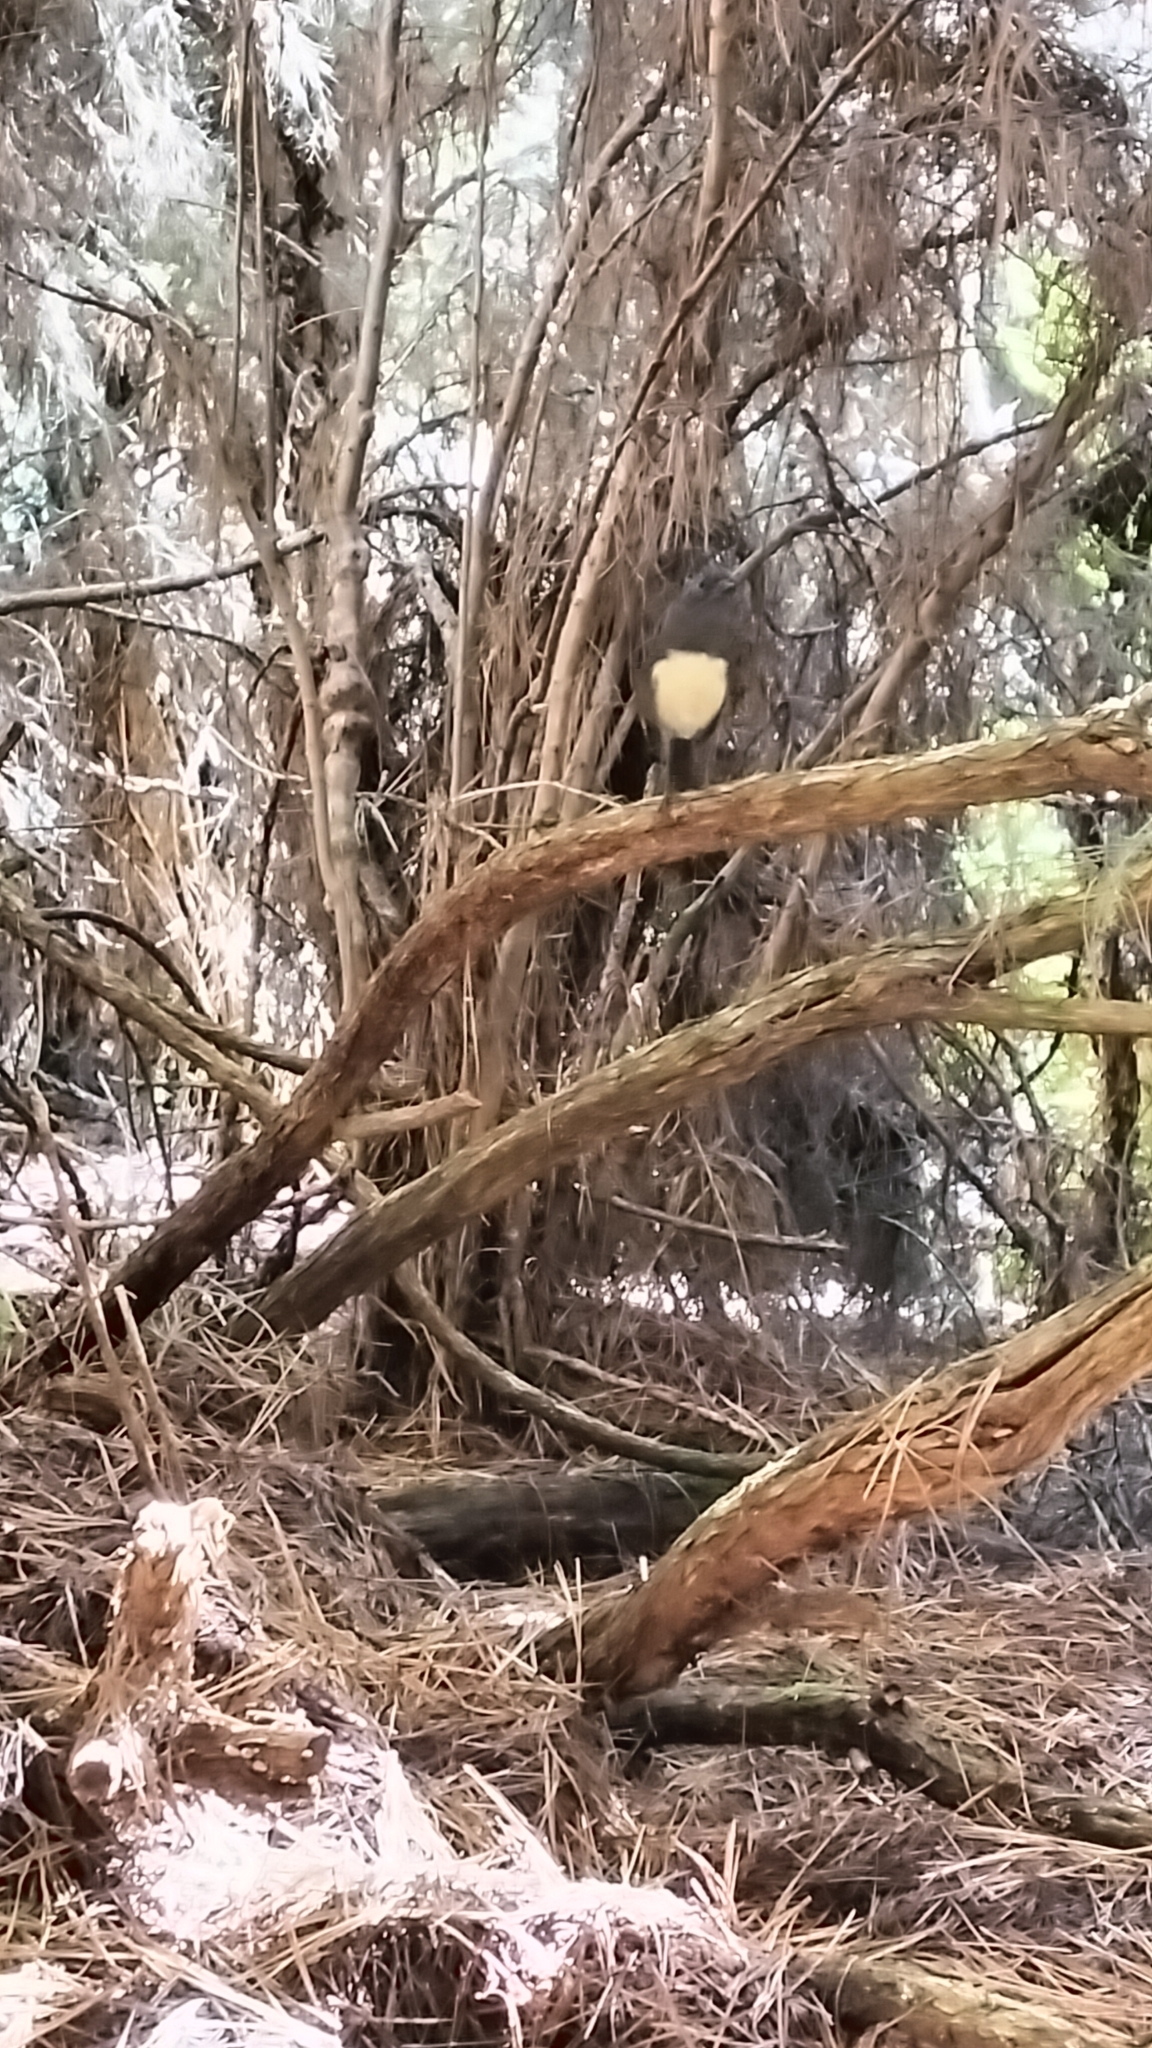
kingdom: Animalia
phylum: Chordata
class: Aves
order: Passeriformes
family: Petroicidae
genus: Petroica
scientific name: Petroica australis
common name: New zealand robin
